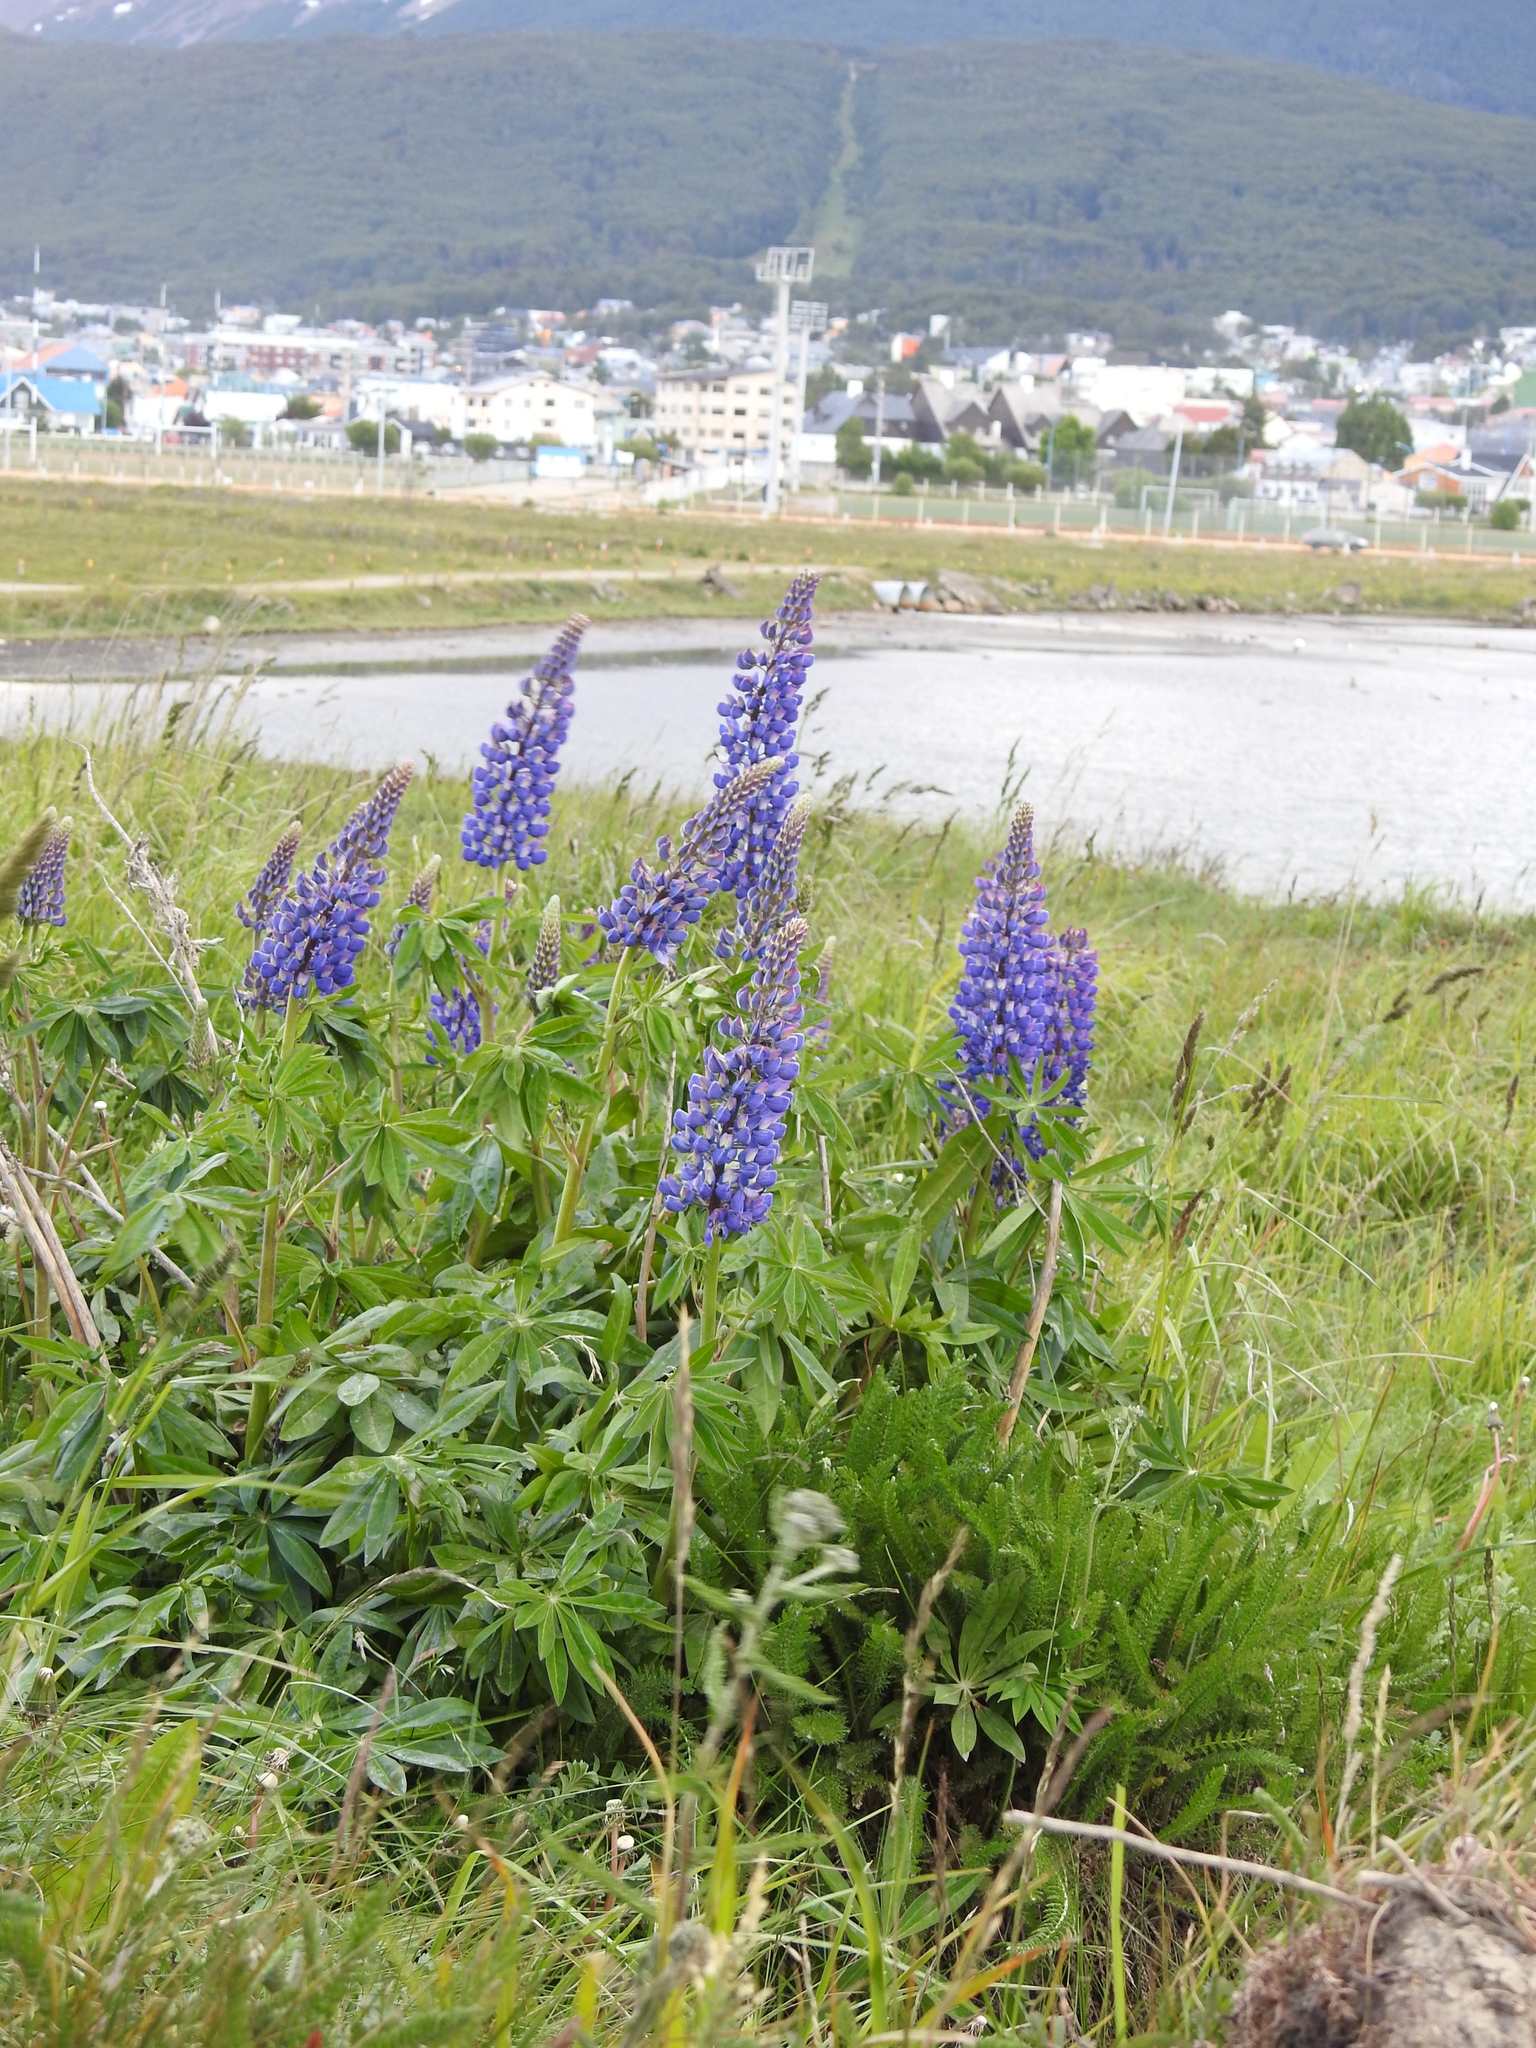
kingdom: Plantae
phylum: Tracheophyta
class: Magnoliopsida
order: Fabales
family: Fabaceae
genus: Lupinus
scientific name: Lupinus polyphyllus
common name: Garden lupin
